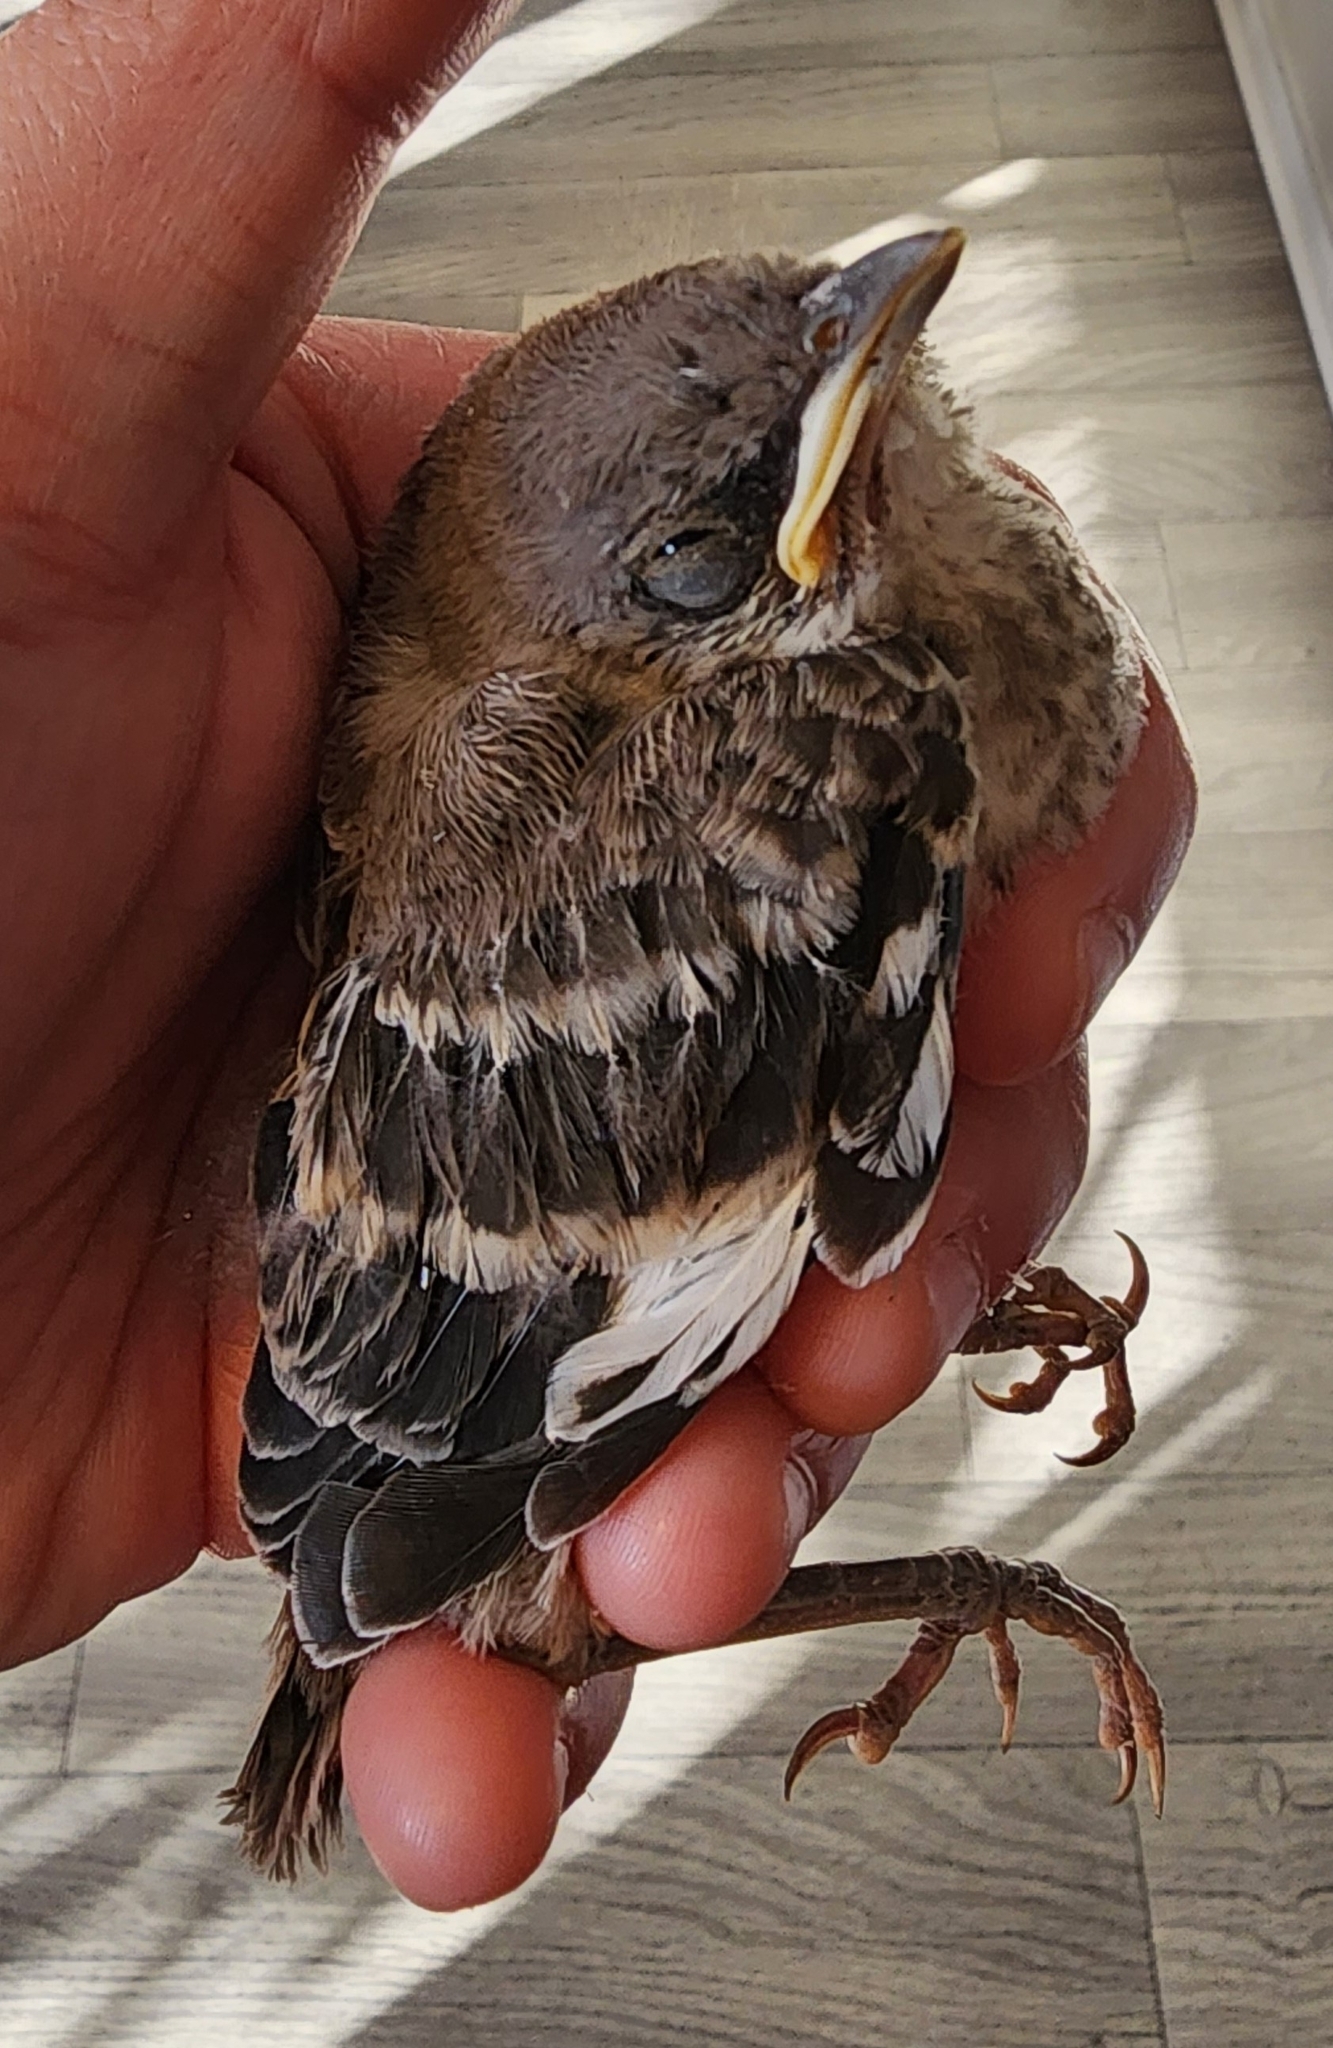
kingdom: Animalia
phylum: Chordata
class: Aves
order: Passeriformes
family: Mimidae
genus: Mimus
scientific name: Mimus polyglottos
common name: Northern mockingbird
